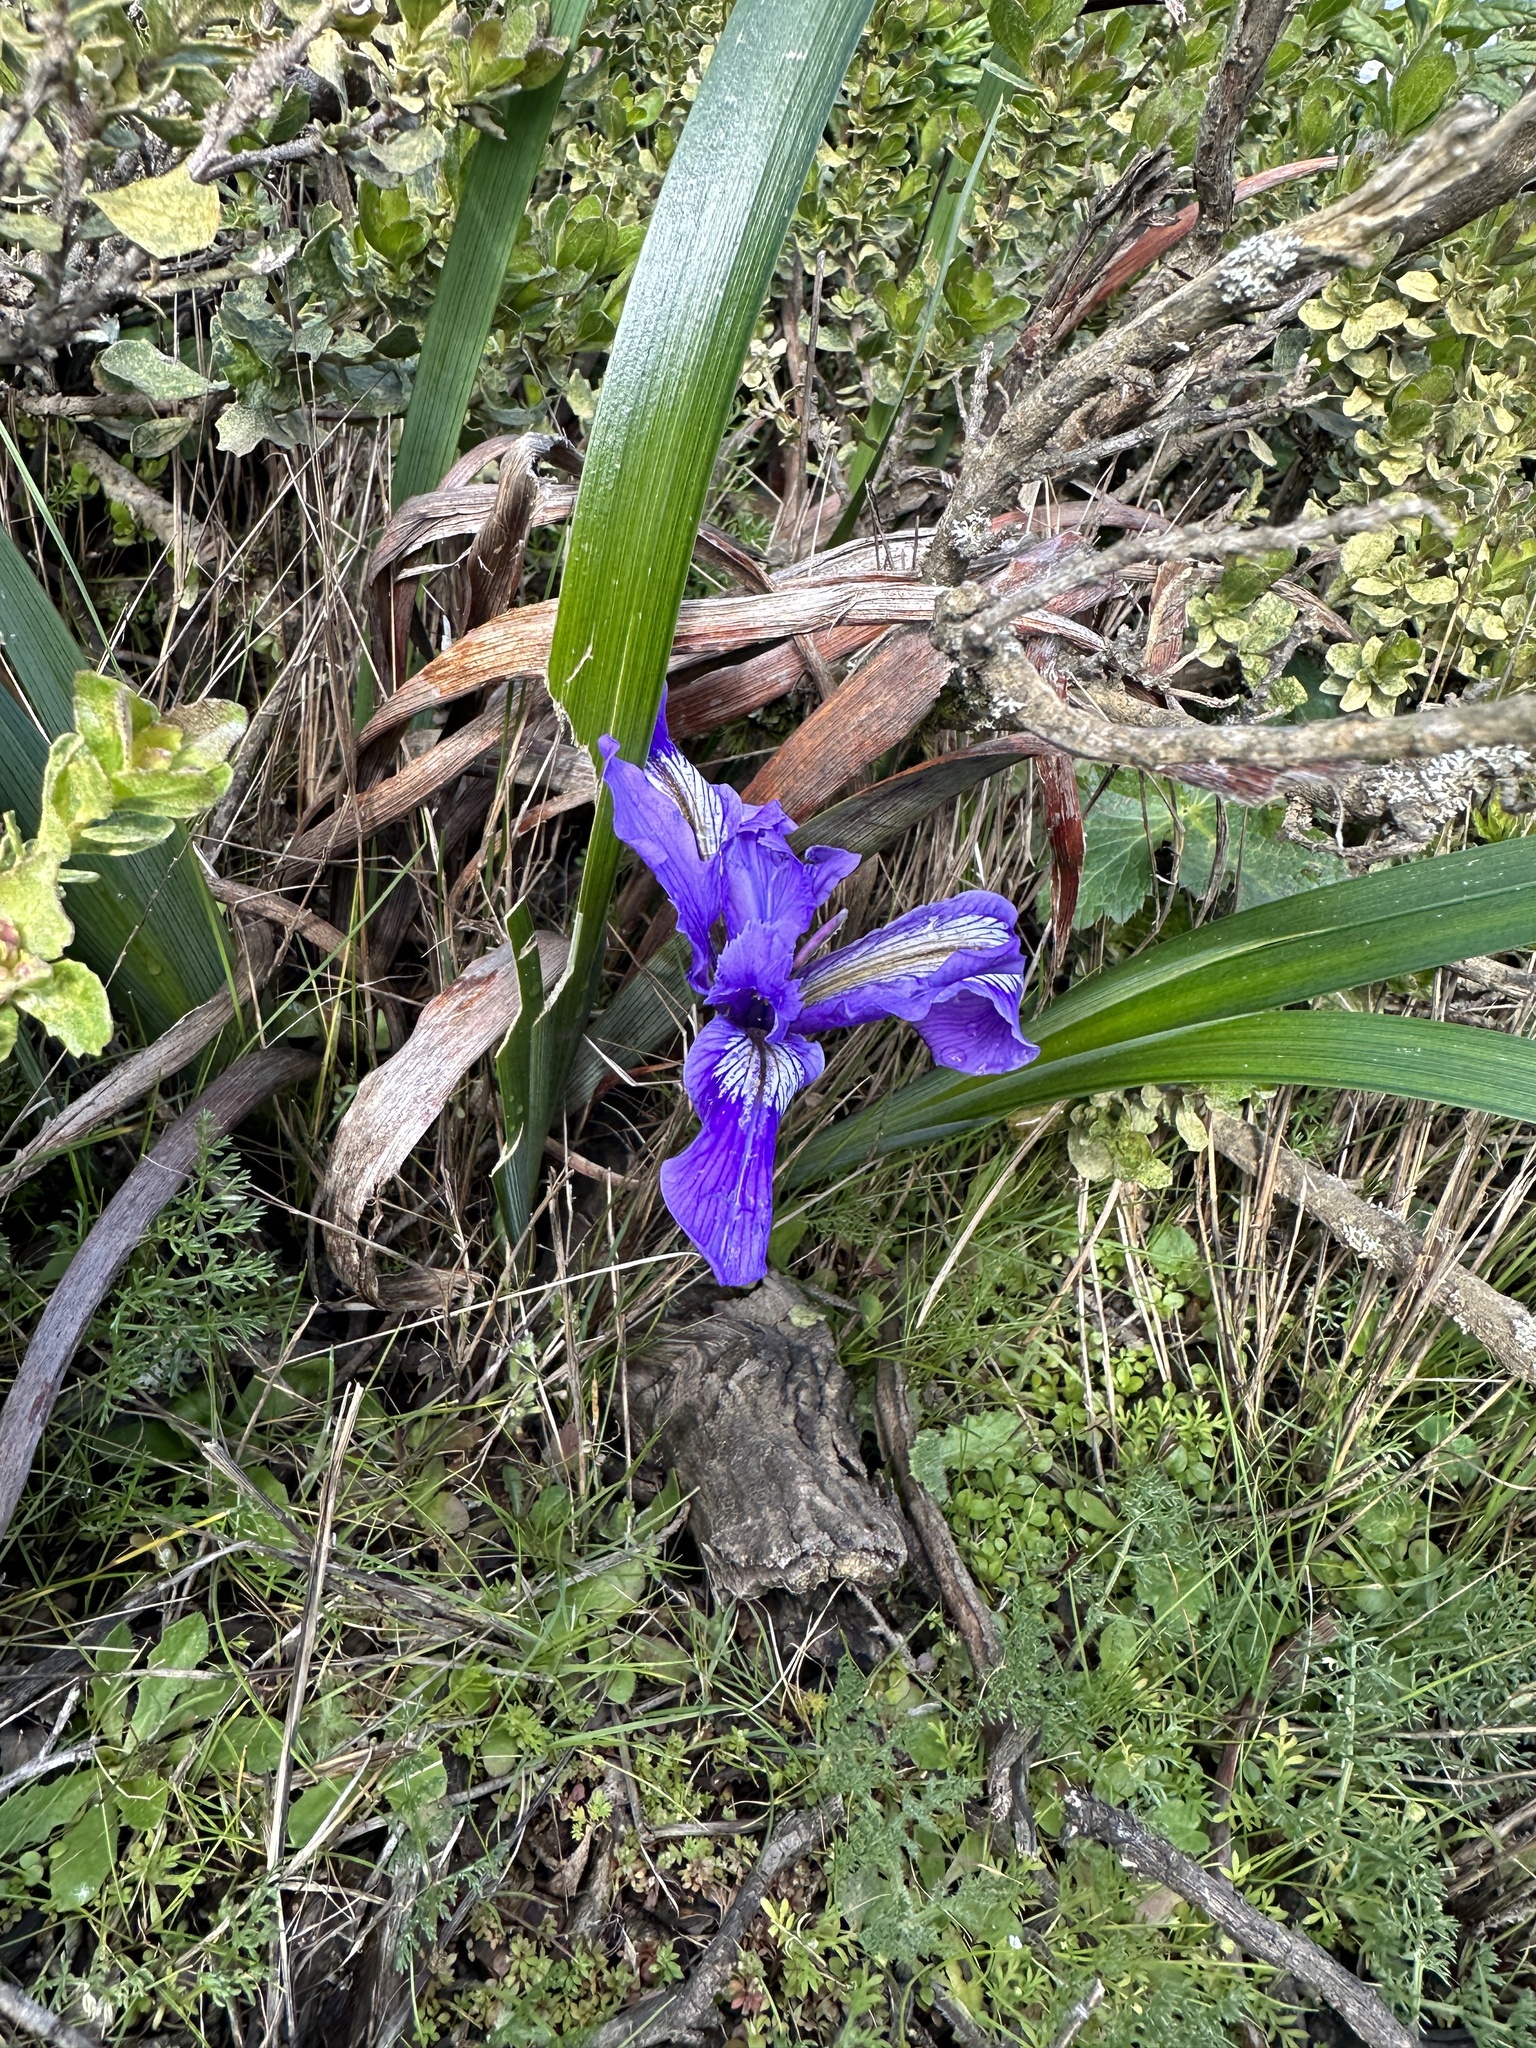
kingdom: Plantae
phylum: Tracheophyta
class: Liliopsida
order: Asparagales
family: Iridaceae
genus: Iris
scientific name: Iris douglasiana
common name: Marin iris
